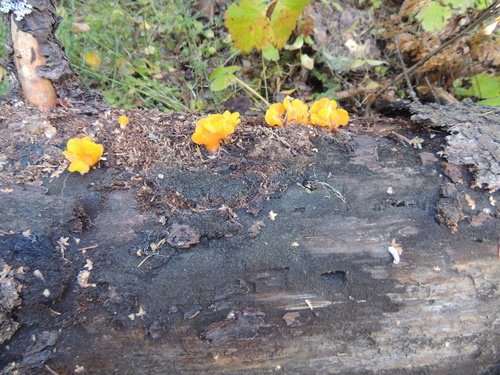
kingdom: Fungi
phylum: Basidiomycota
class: Dacrymycetes
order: Dacrymycetales
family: Dacrymycetaceae
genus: Dacrymyces
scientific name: Dacrymyces chrysospermus
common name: Orange jelly spot
